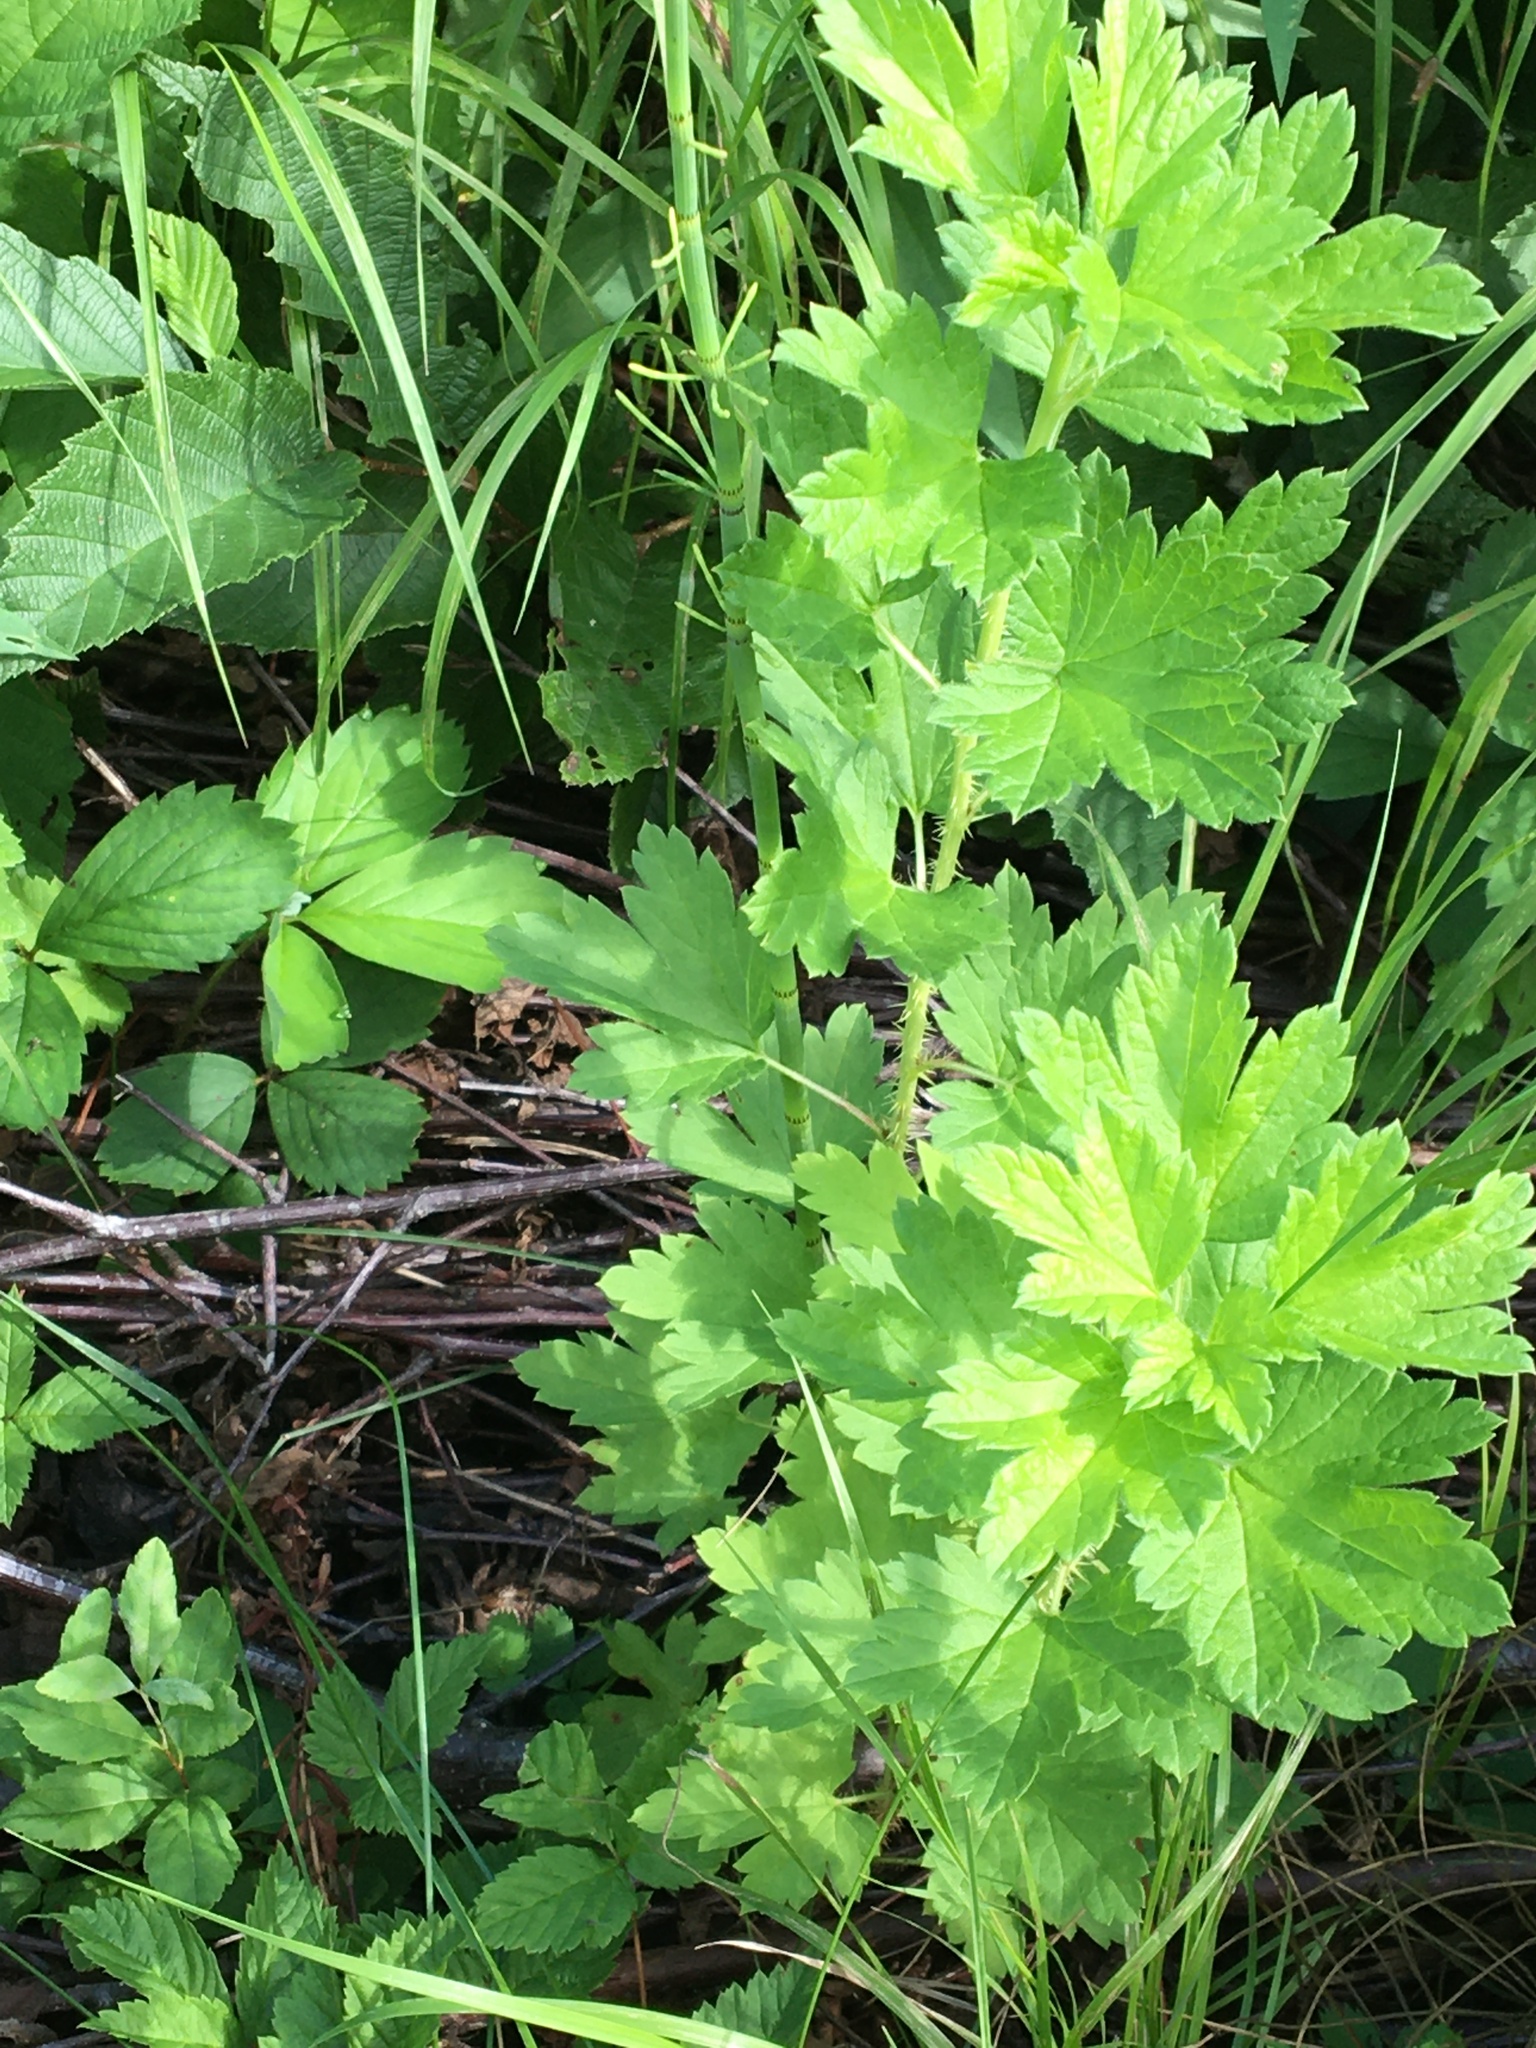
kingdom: Plantae
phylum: Tracheophyta
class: Magnoliopsida
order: Saxifragales
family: Grossulariaceae
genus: Ribes
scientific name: Ribes hirtellum
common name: Hairy gooseberry
